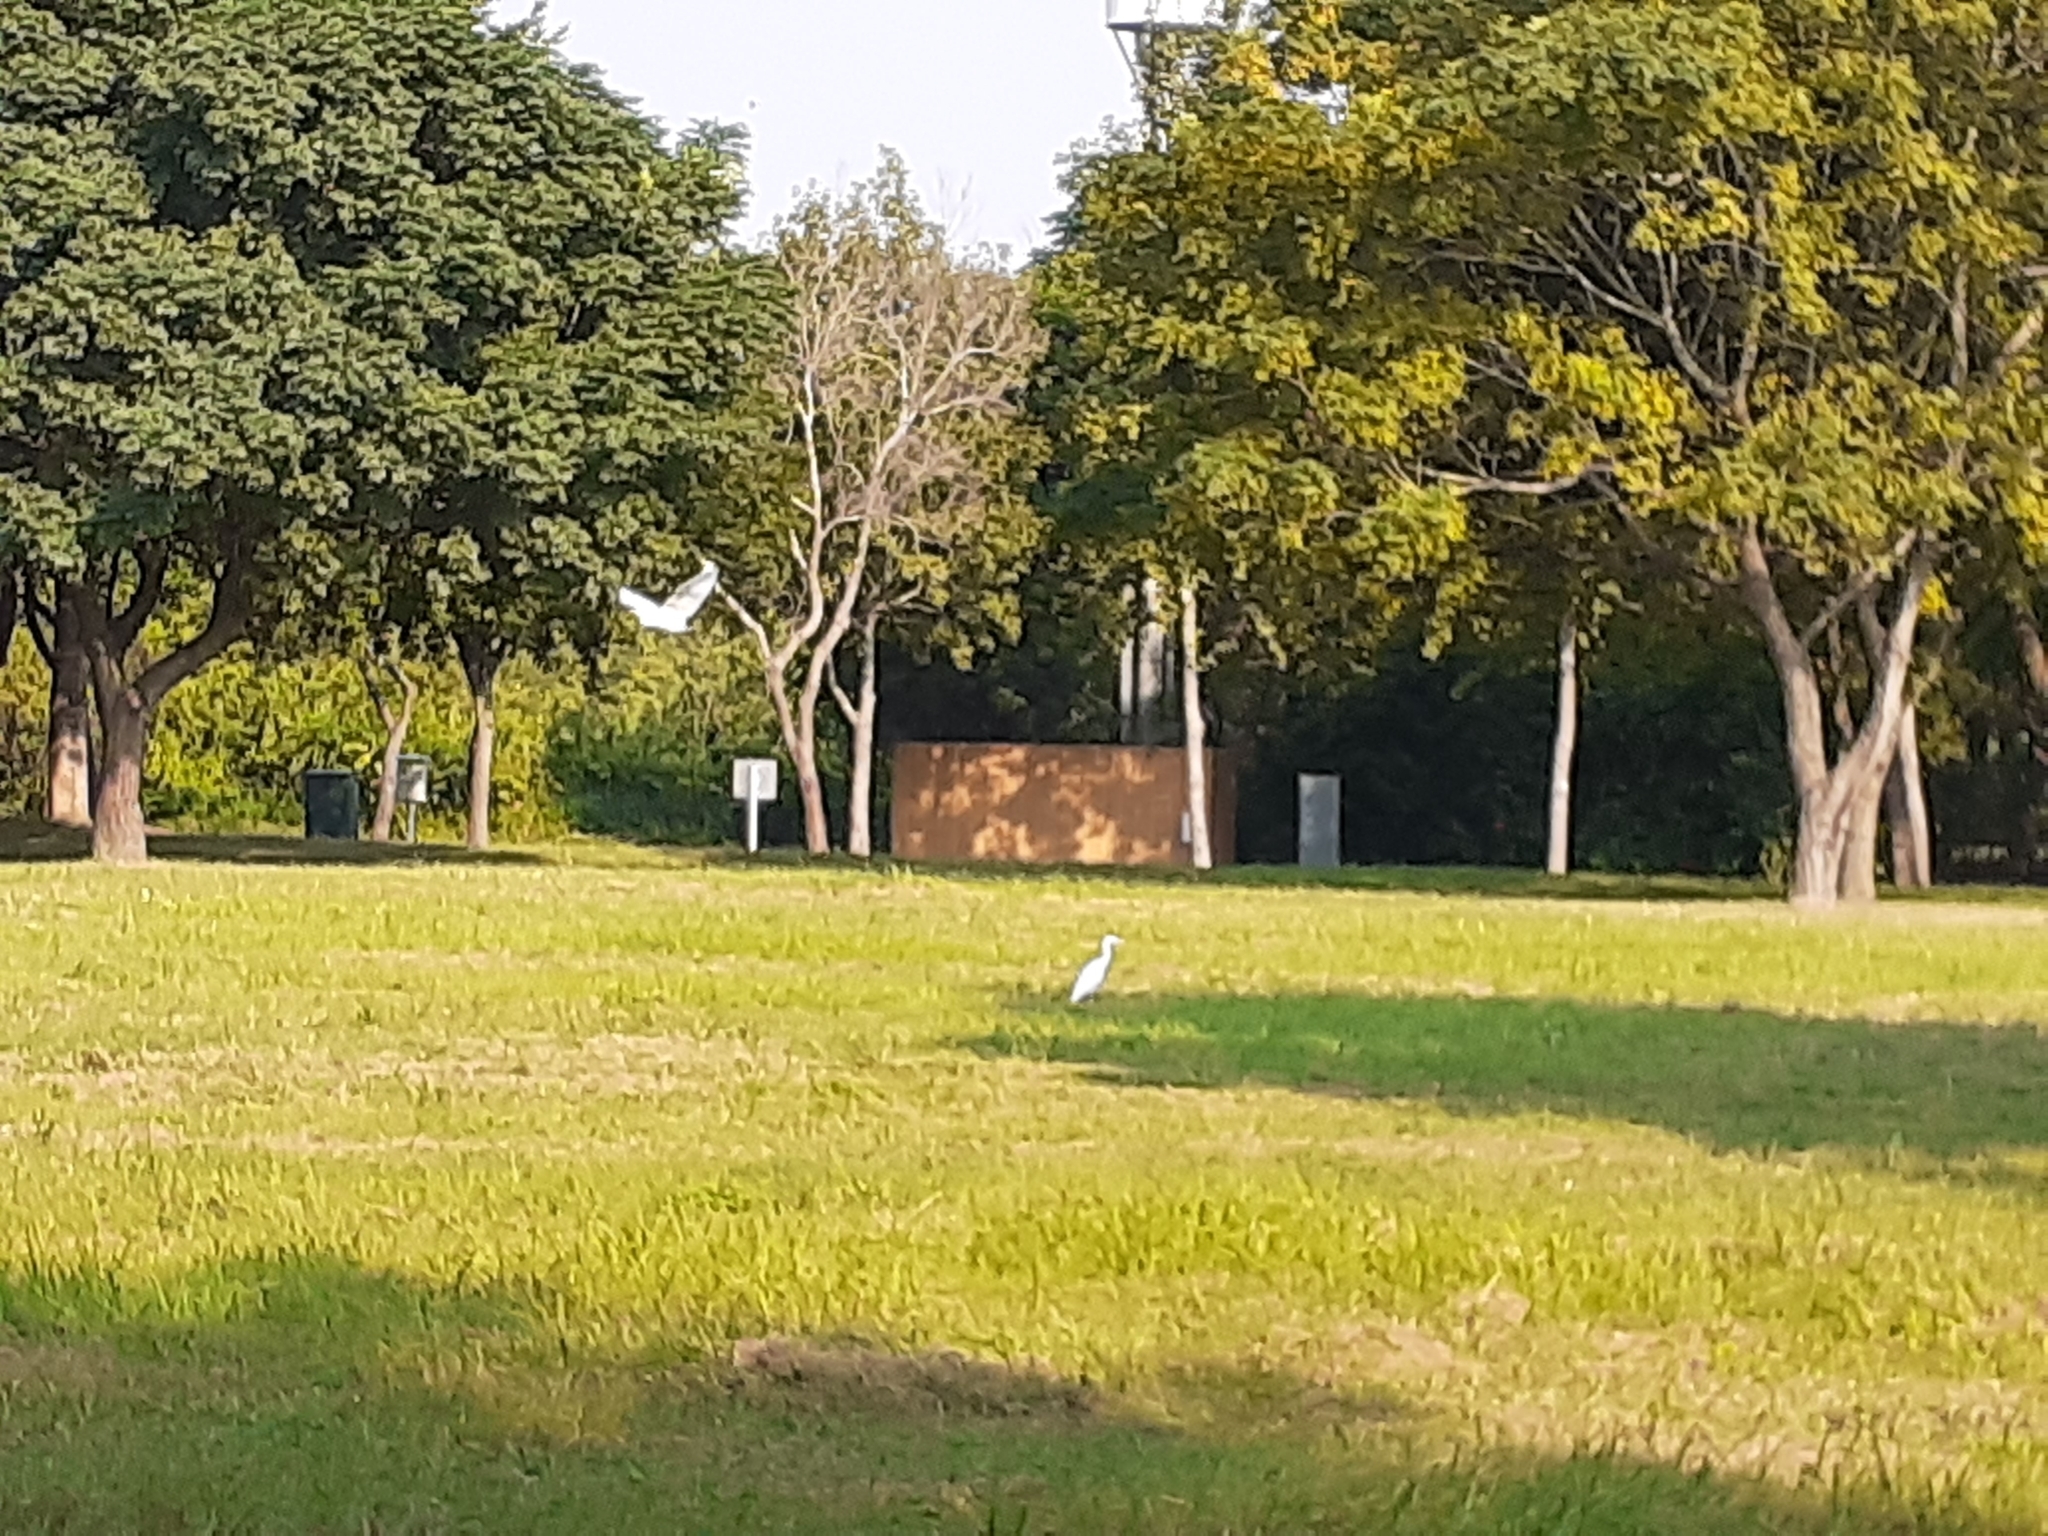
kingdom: Animalia
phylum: Chordata
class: Aves
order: Pelecaniformes
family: Ardeidae
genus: Bubulcus
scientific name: Bubulcus coromandus
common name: Eastern cattle egret
